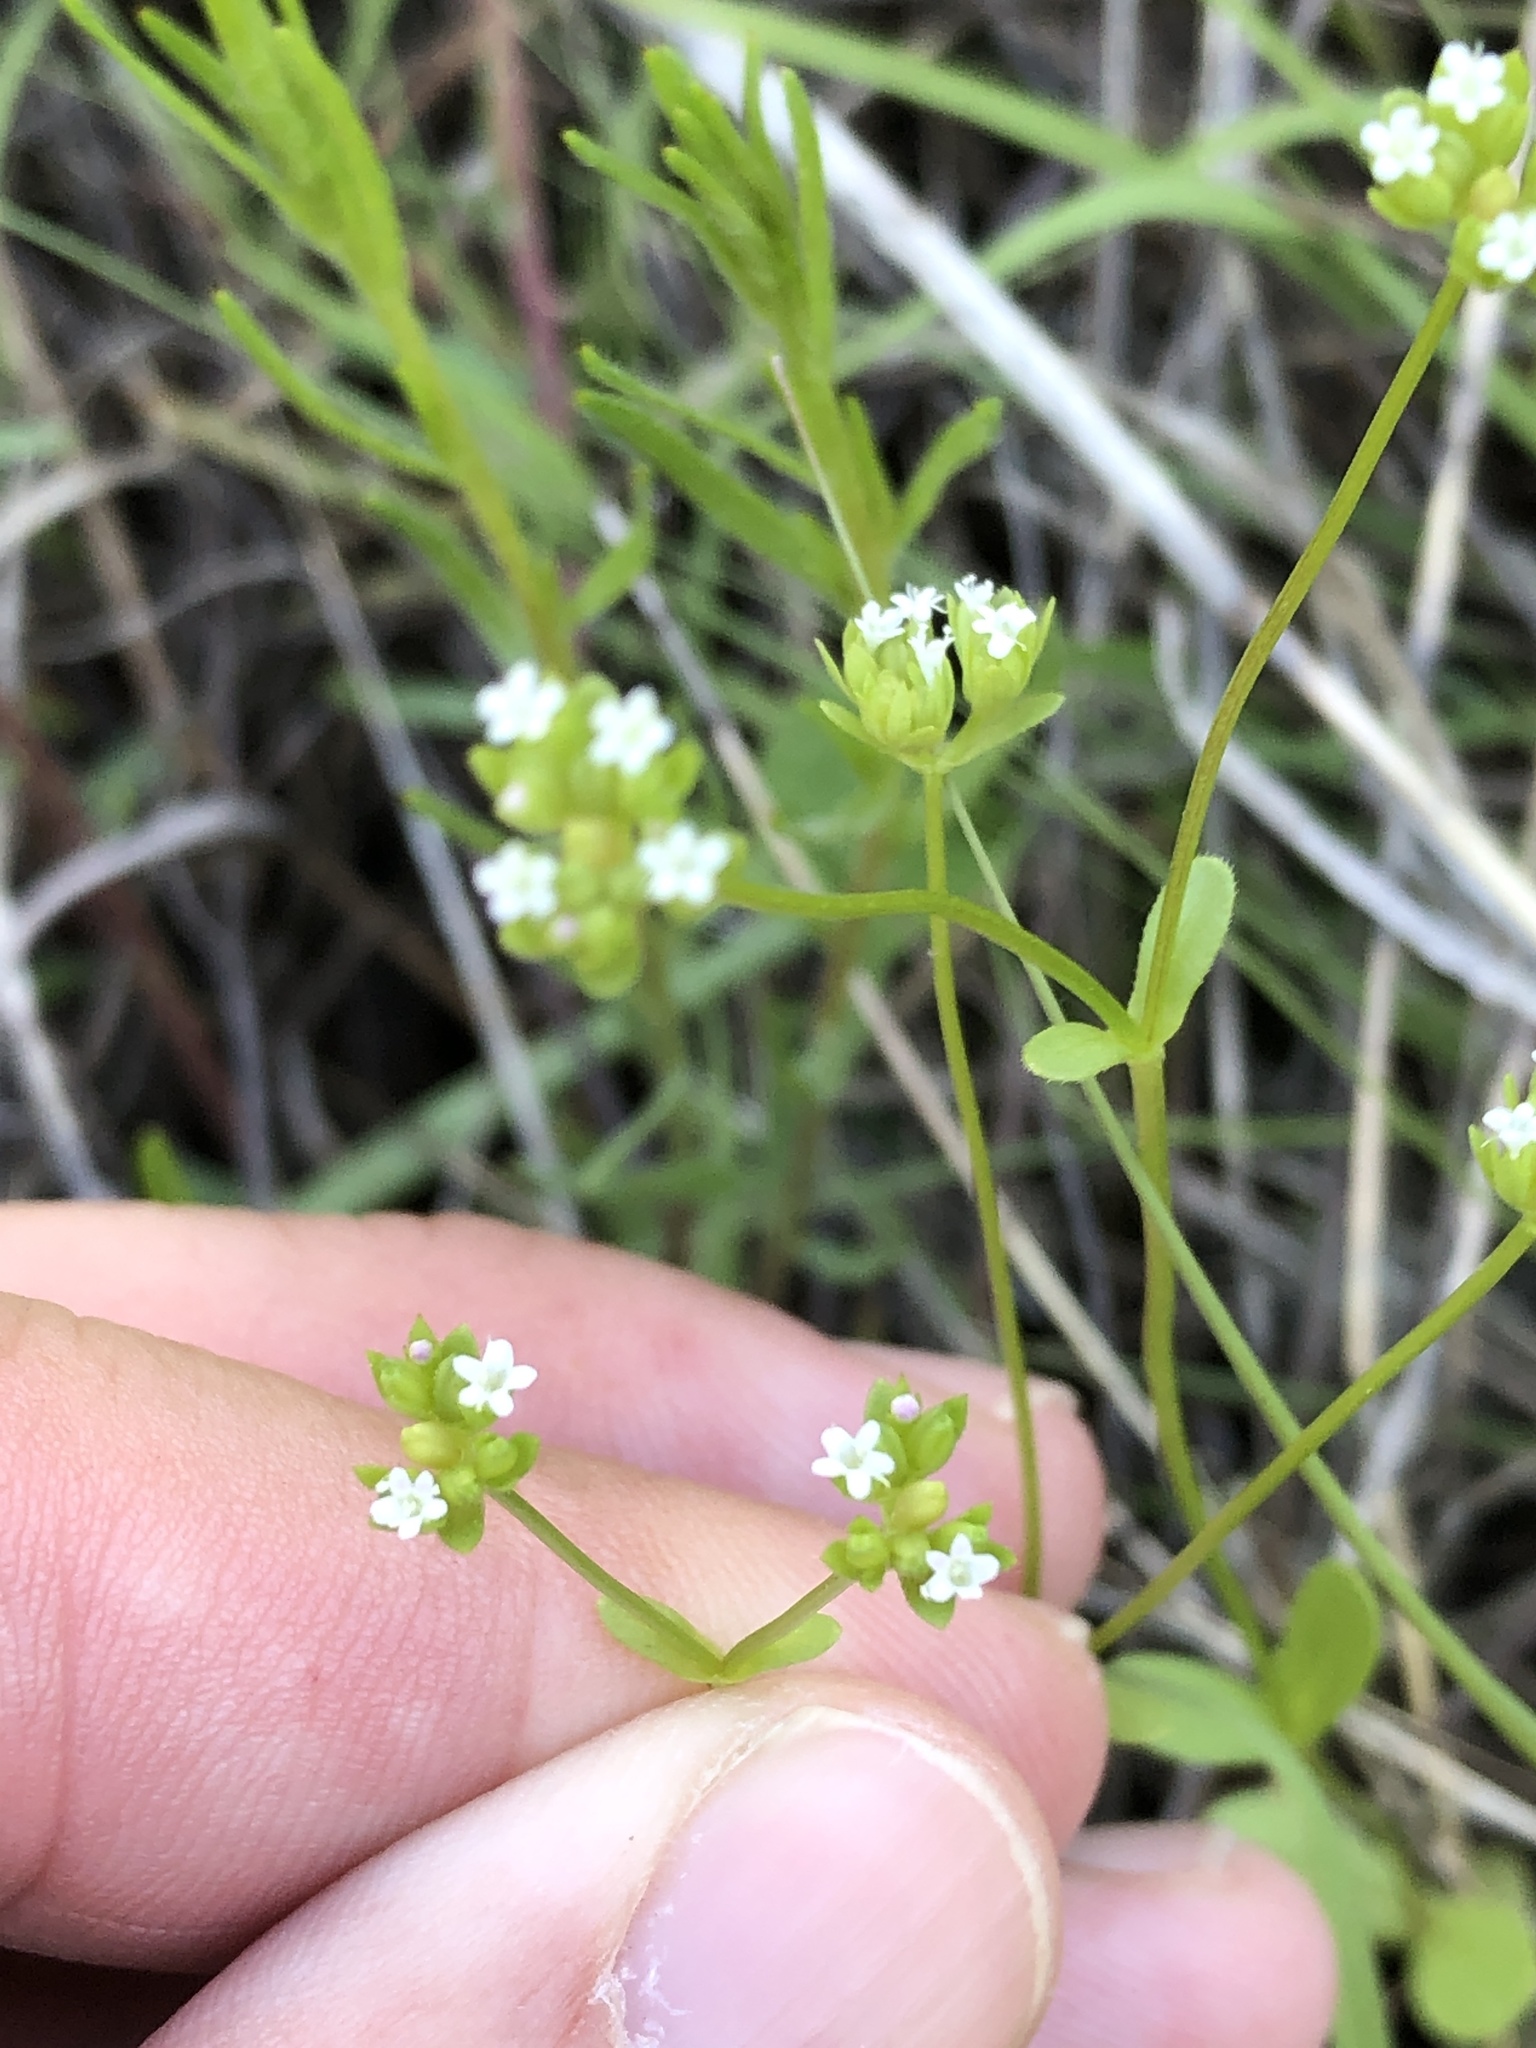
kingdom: Plantae
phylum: Tracheophyta
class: Magnoliopsida
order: Dipsacales
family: Caprifoliaceae
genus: Valerianella
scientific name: Valerianella radiata
